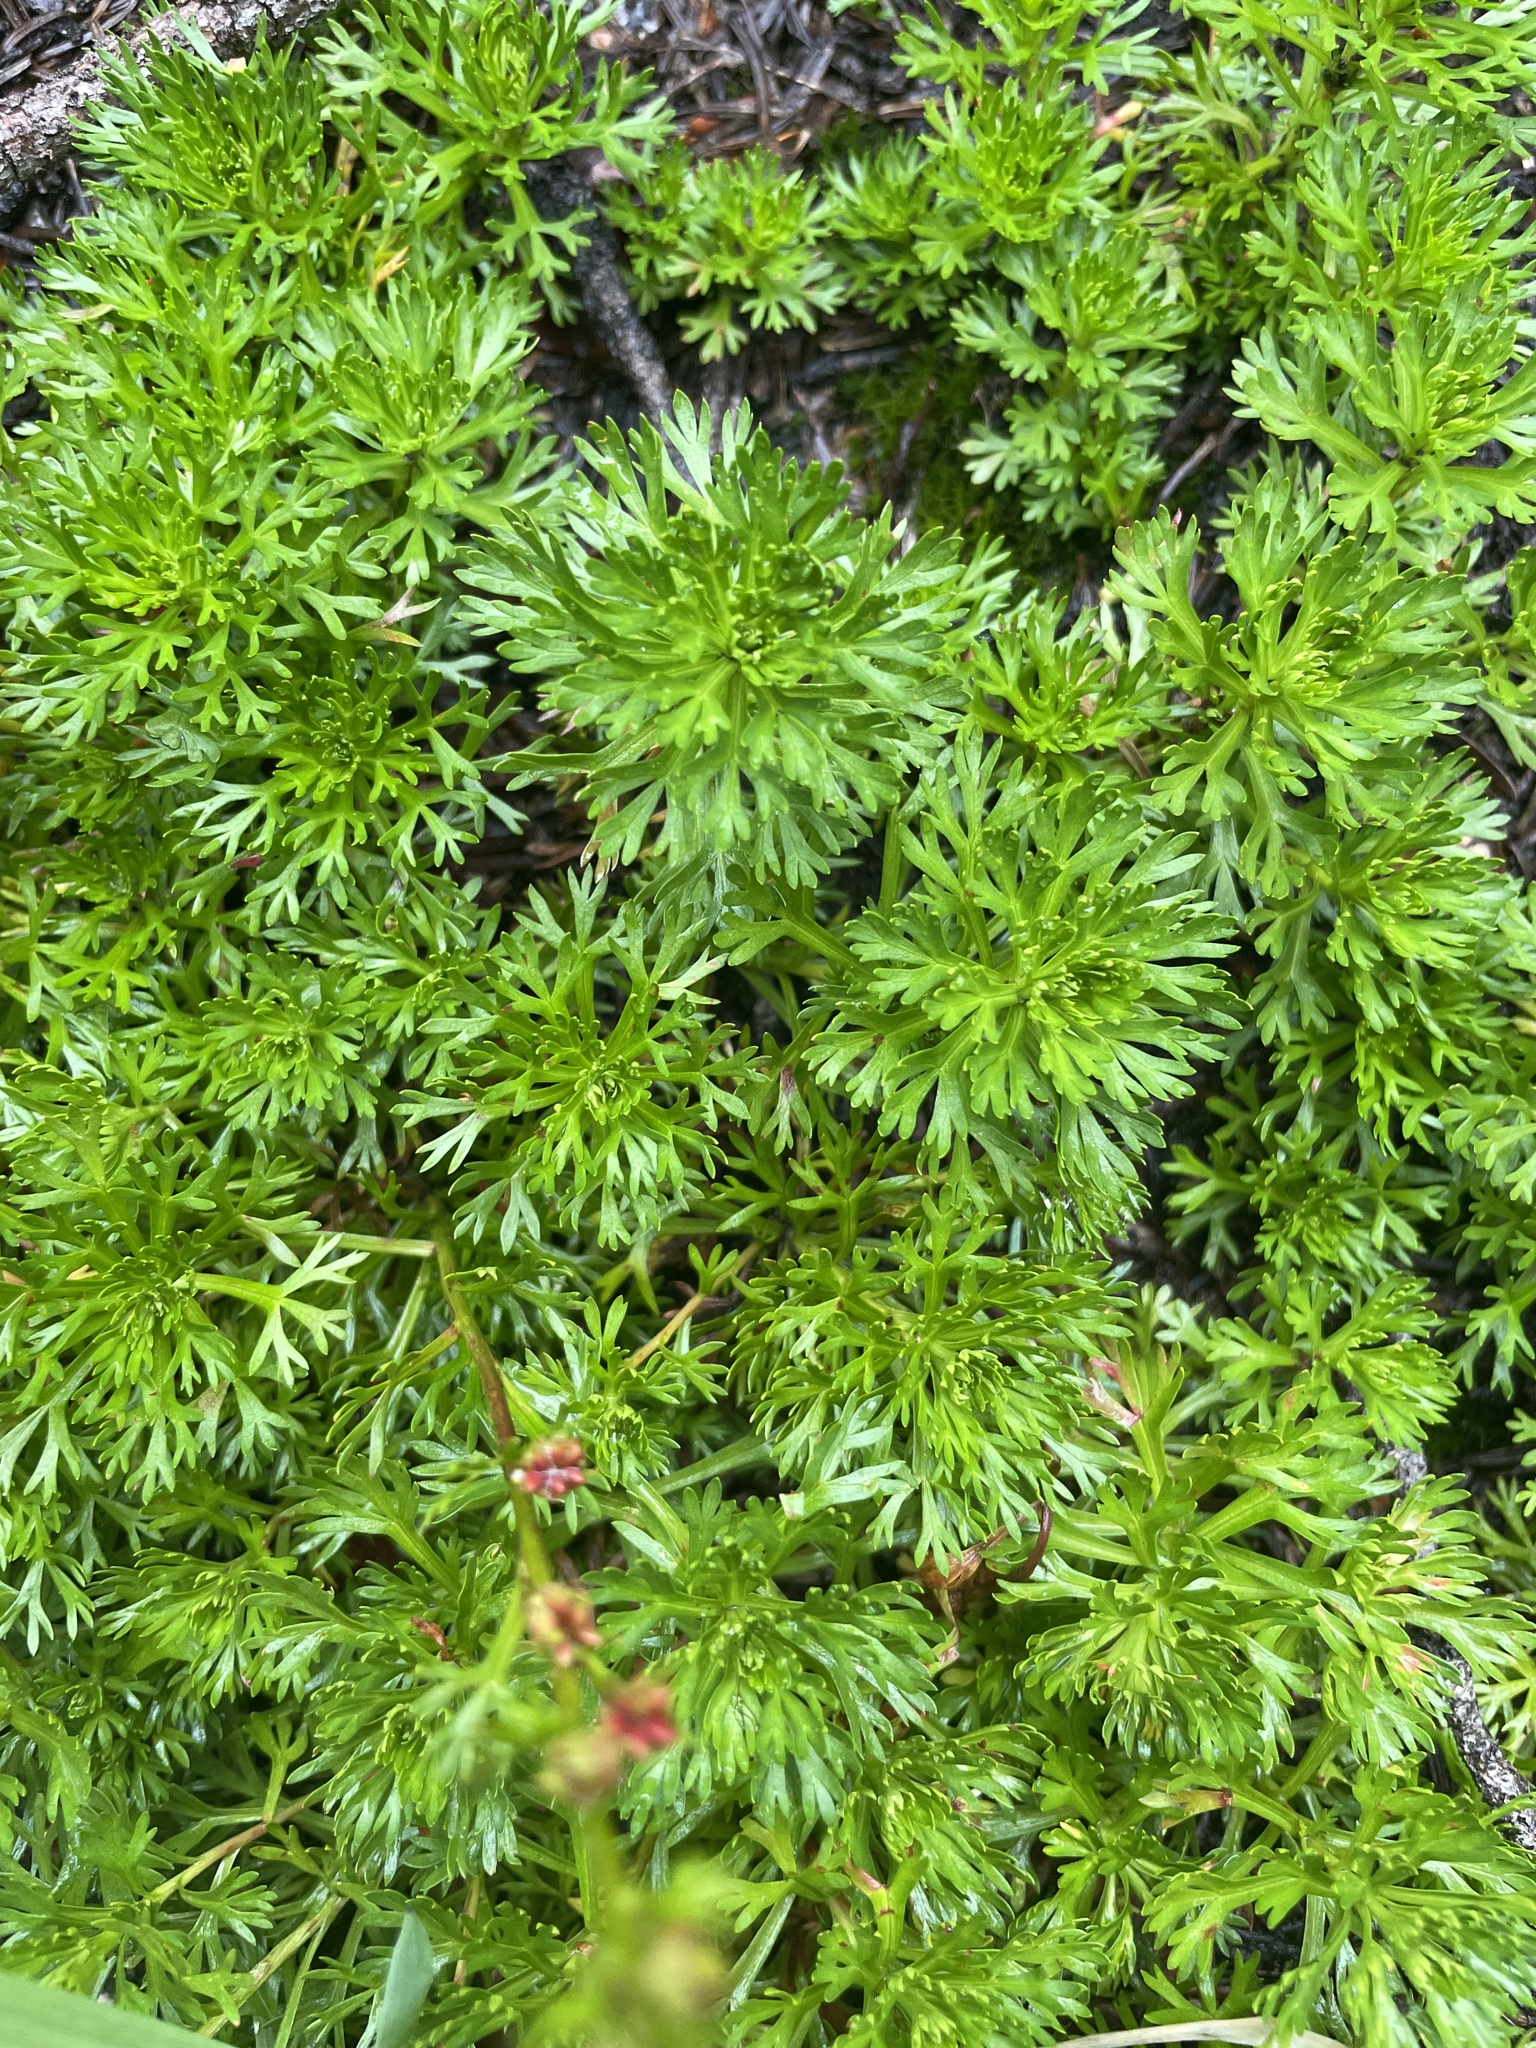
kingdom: Plantae
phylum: Tracheophyta
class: Magnoliopsida
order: Rosales
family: Rosaceae
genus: Luetkea
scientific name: Luetkea pectinata
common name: Partridgefoot
